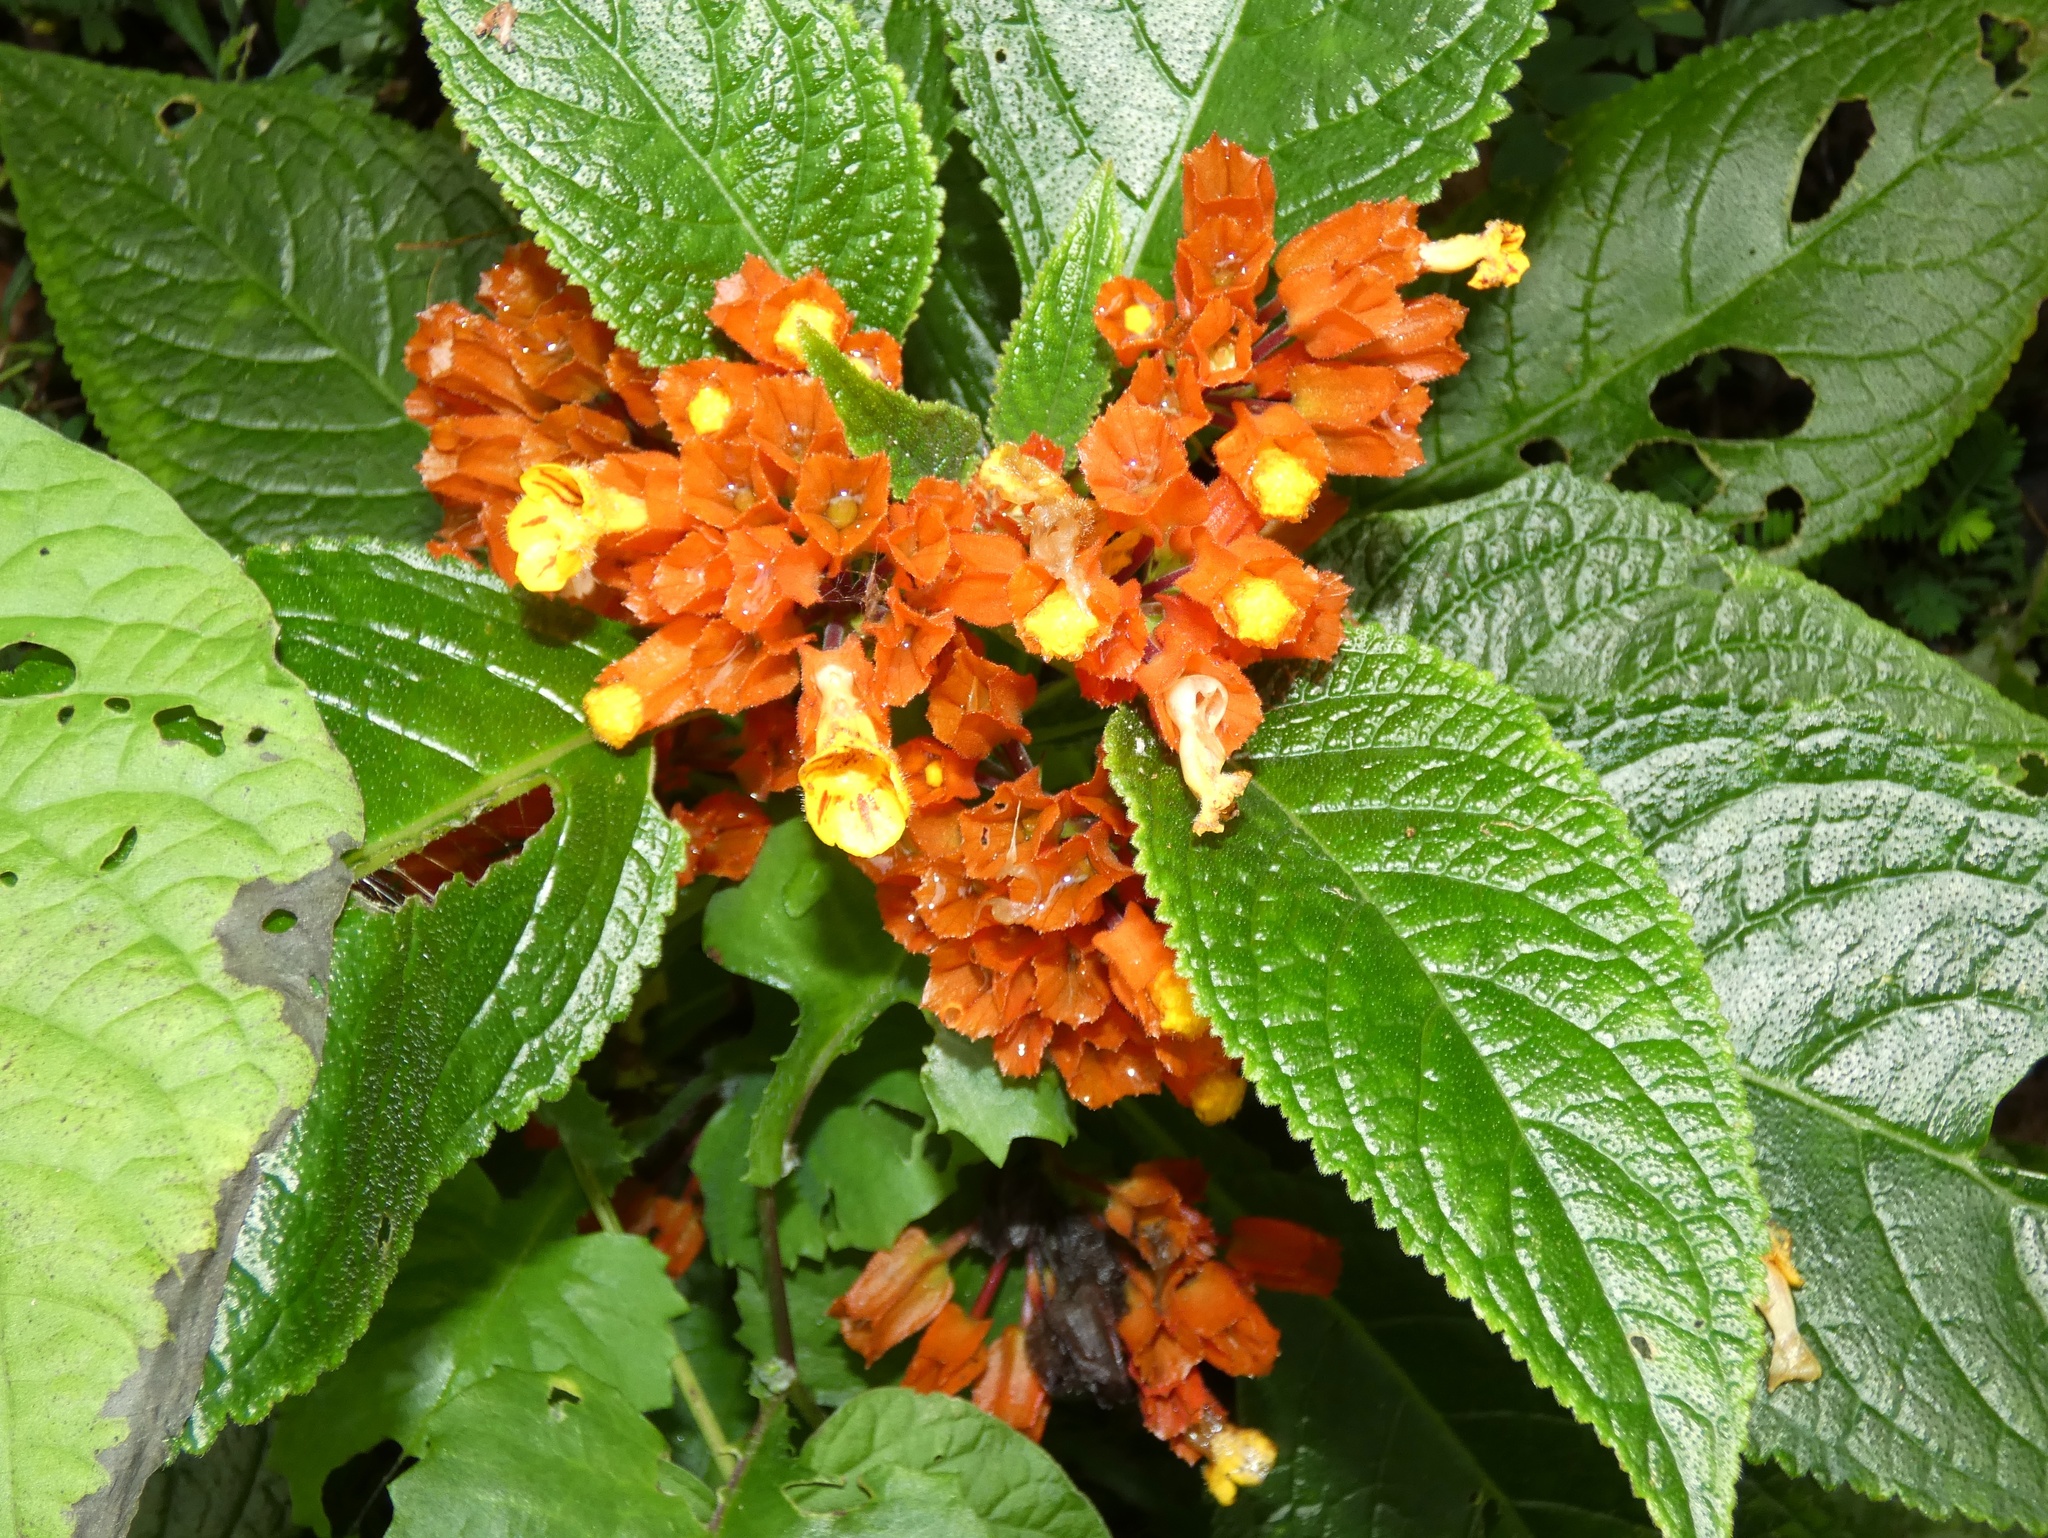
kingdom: Plantae
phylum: Tracheophyta
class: Magnoliopsida
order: Lamiales
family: Gesneriaceae
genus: Chrysothemis
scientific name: Chrysothemis pulchella
